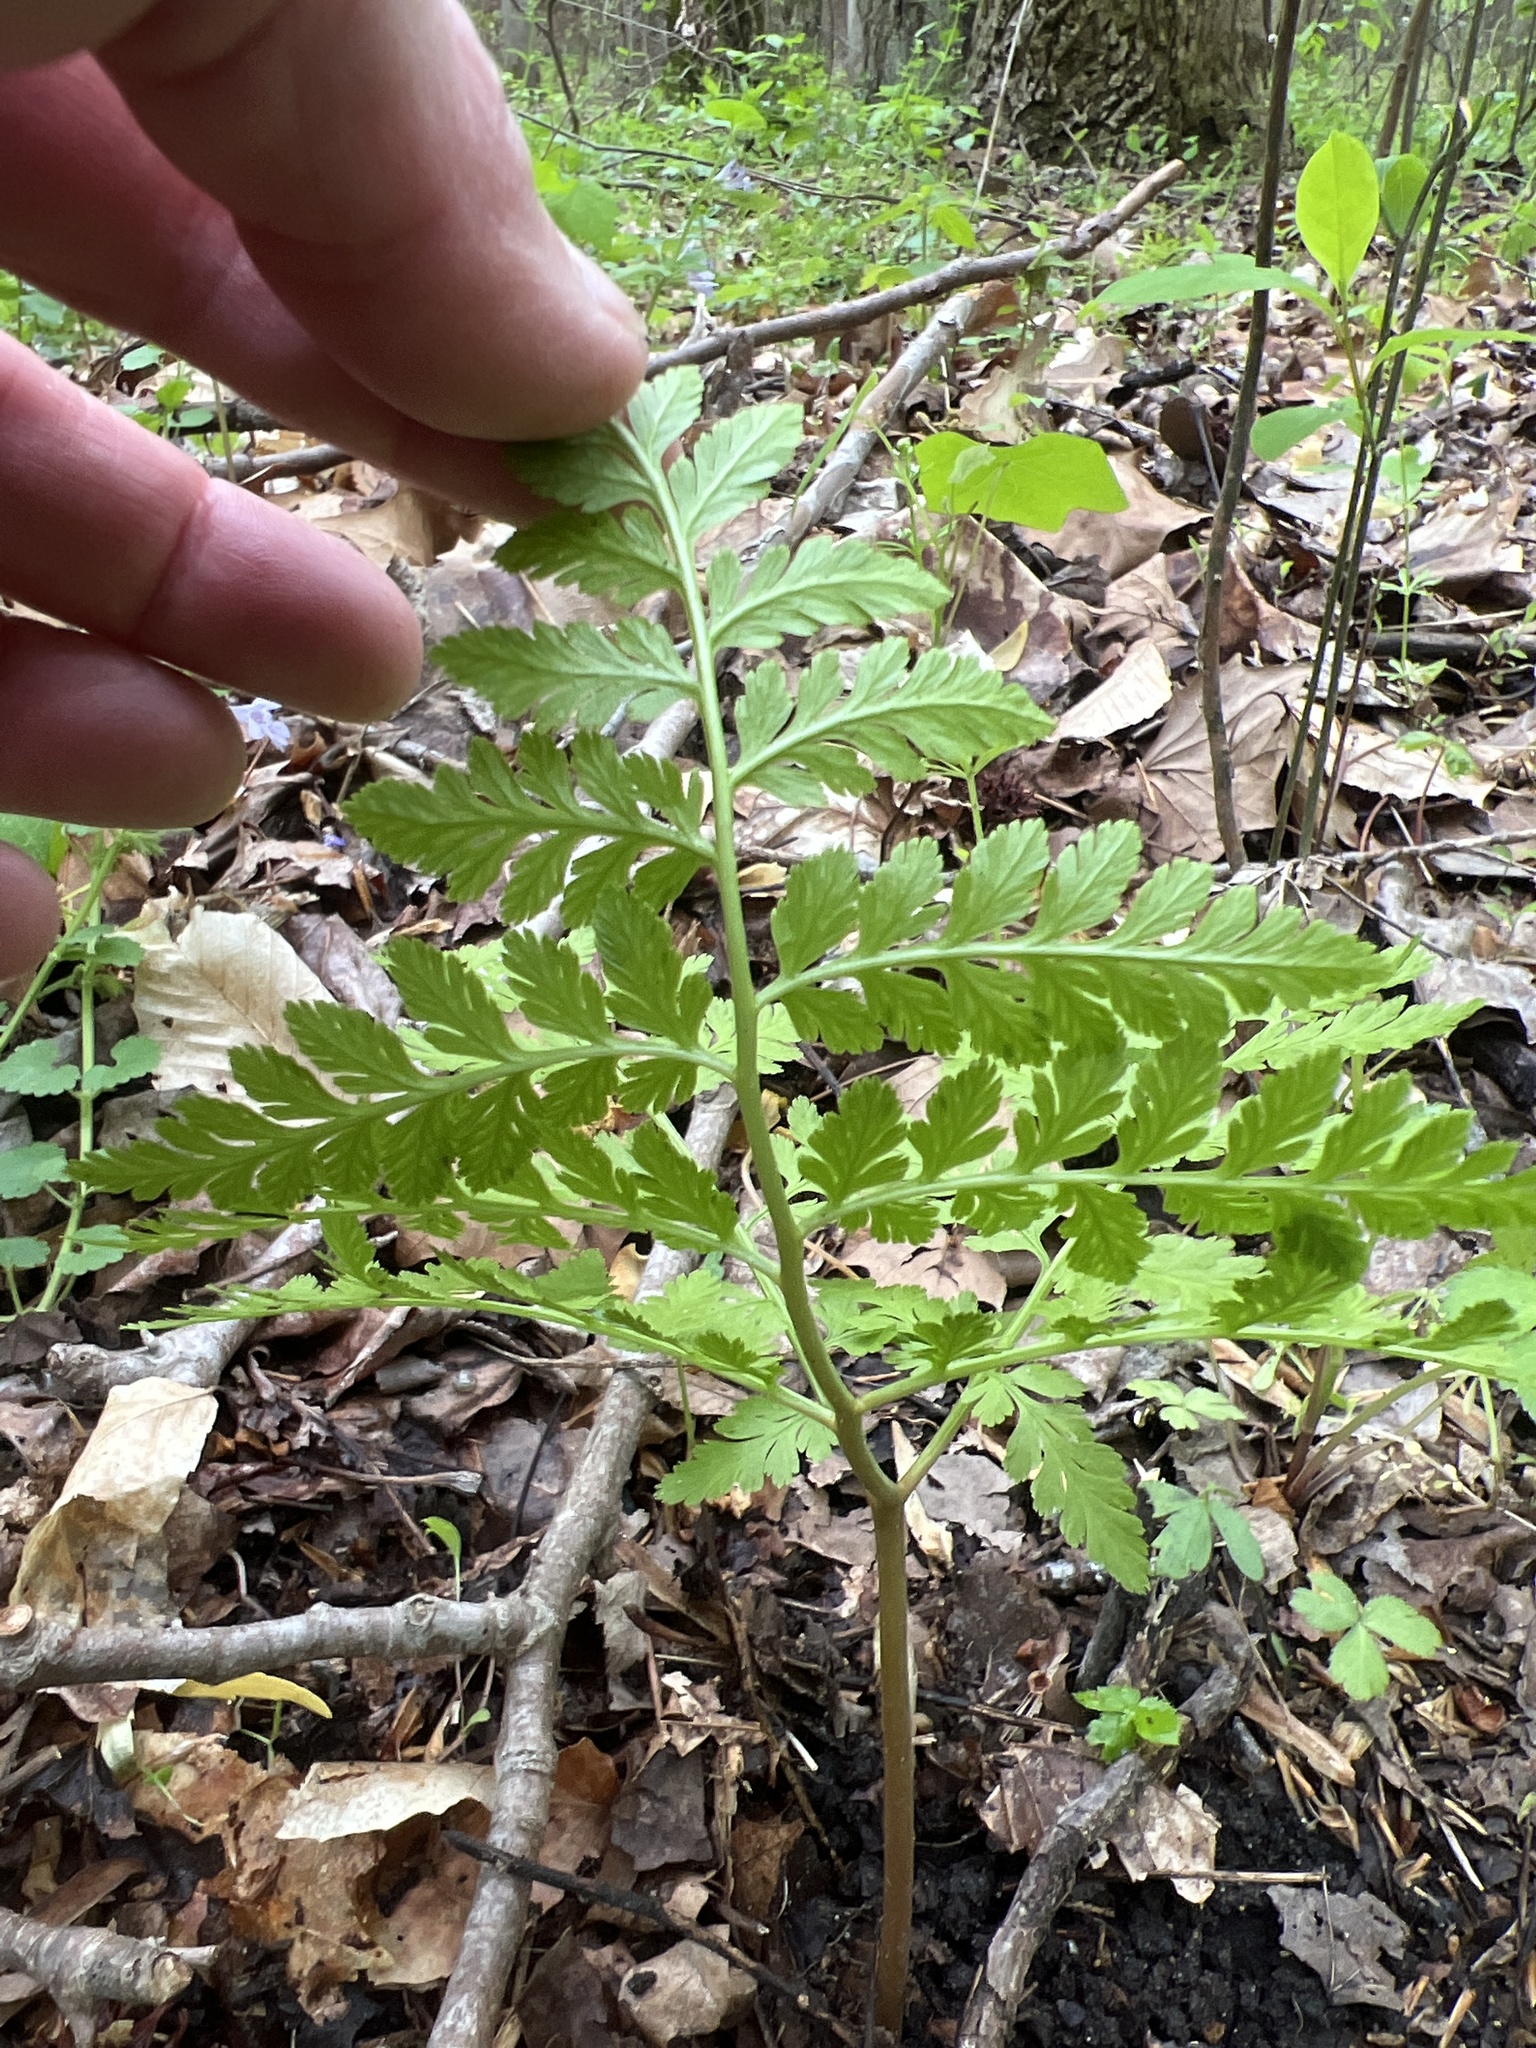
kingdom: Plantae
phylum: Tracheophyta
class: Polypodiopsida
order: Ophioglossales
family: Ophioglossaceae
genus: Botrypus
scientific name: Botrypus virginianus
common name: Common grapefern
